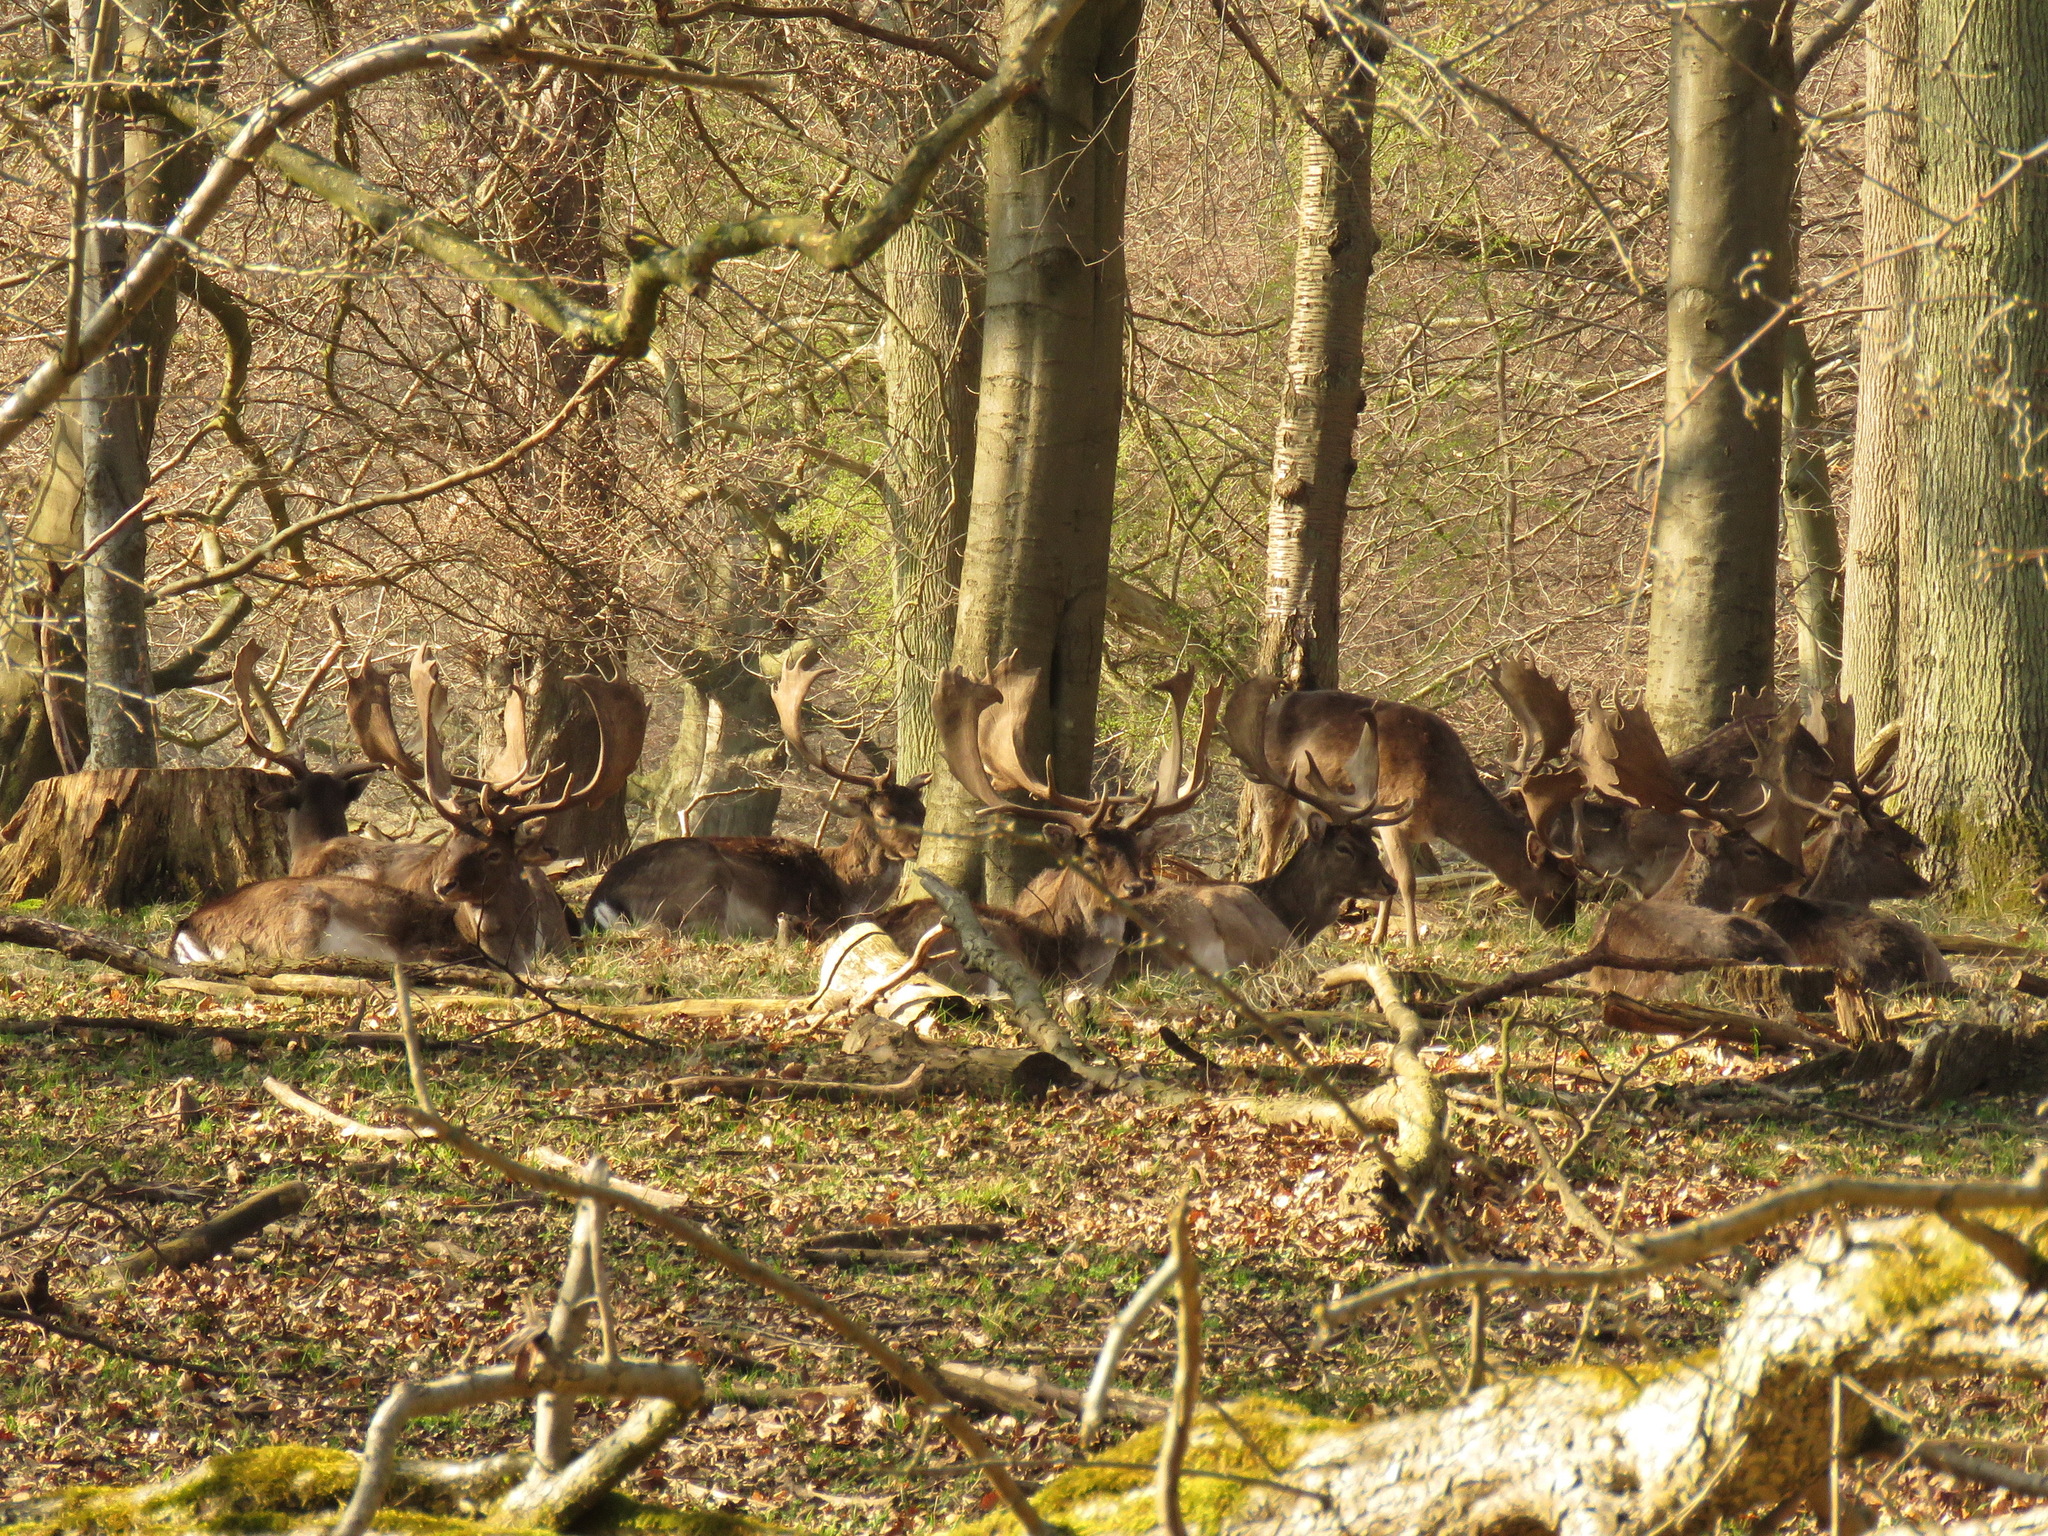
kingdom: Animalia
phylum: Chordata
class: Mammalia
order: Artiodactyla
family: Cervidae
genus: Dama
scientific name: Dama dama
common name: Fallow deer
